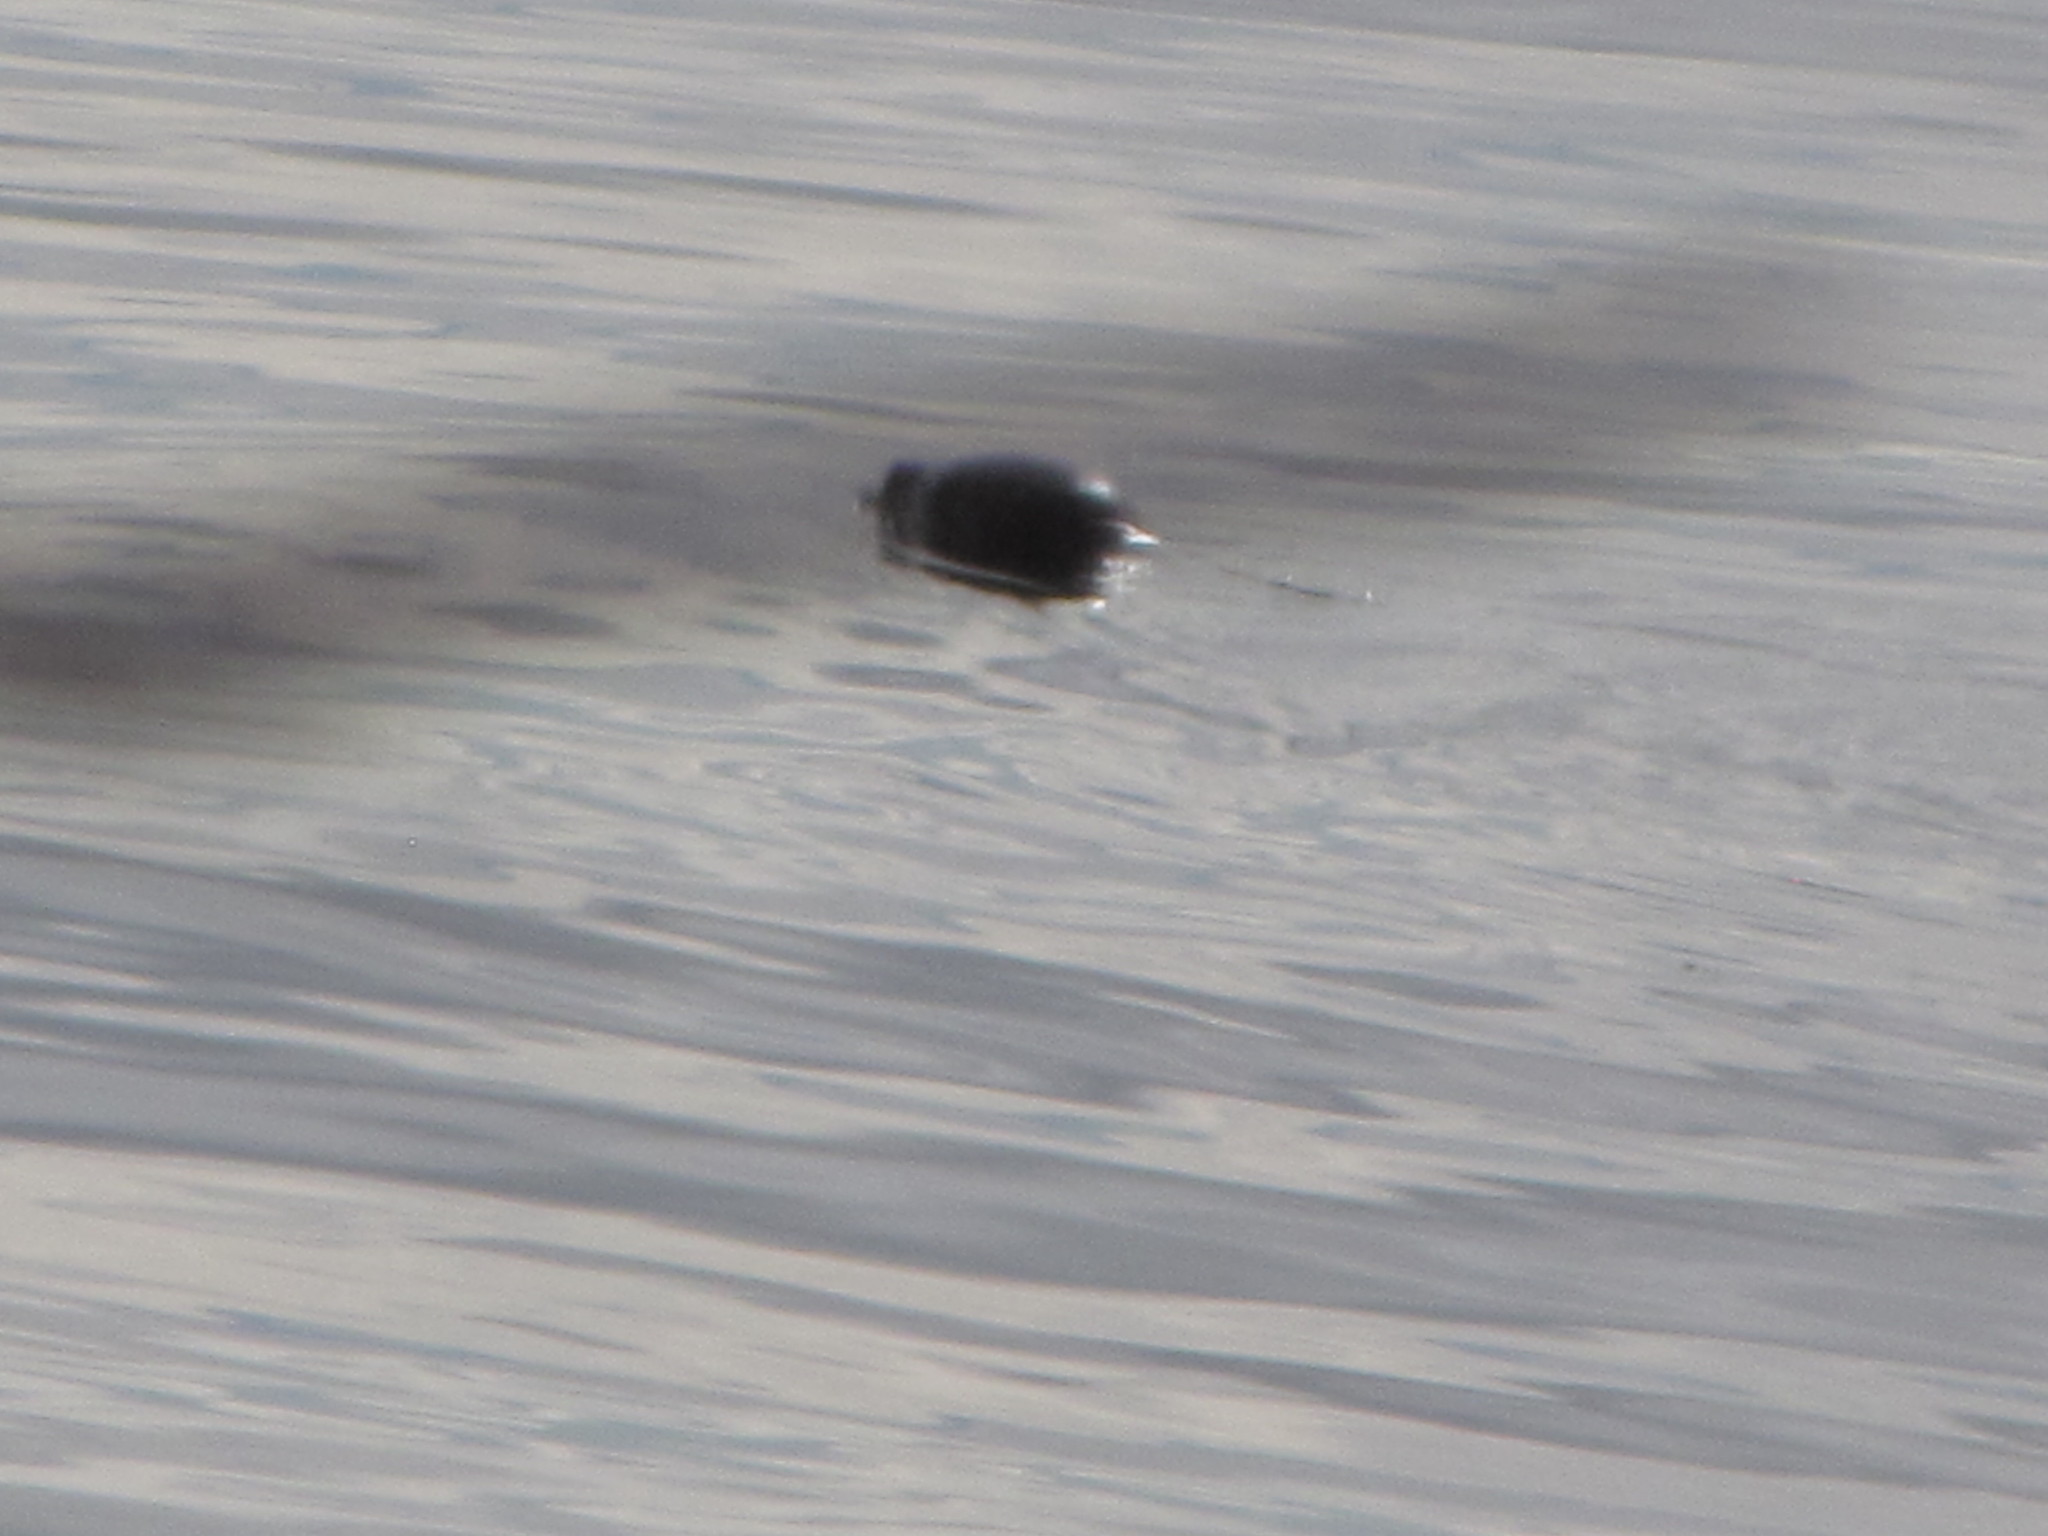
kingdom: Animalia
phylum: Chordata
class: Mammalia
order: Carnivora
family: Phocidae
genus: Phoca
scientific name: Phoca vitulina
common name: Harbor seal
